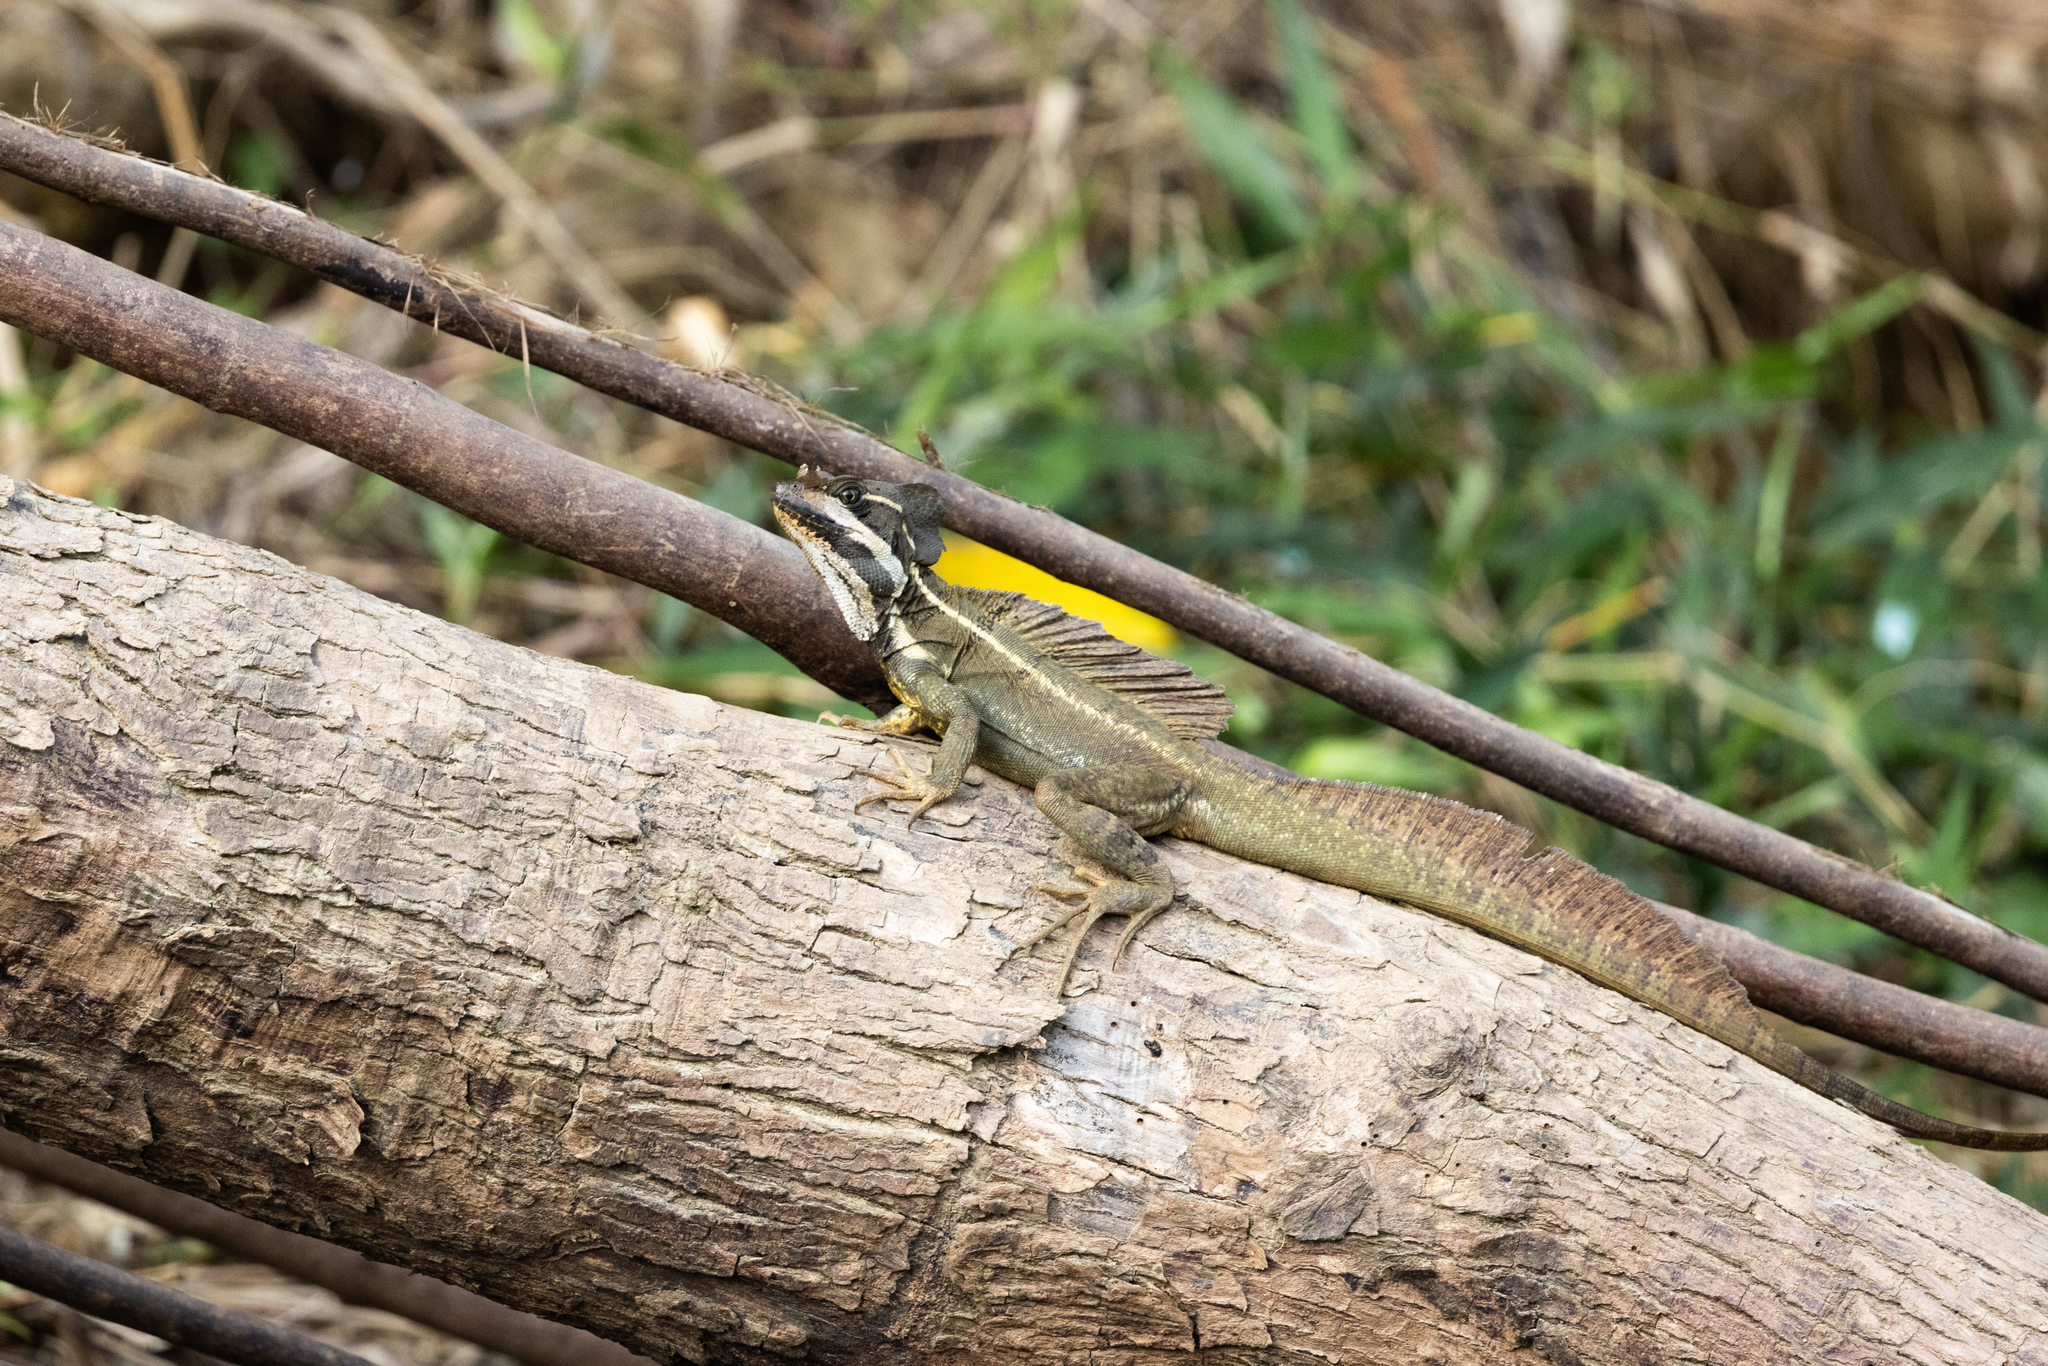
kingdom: Animalia
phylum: Chordata
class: Squamata
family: Corytophanidae
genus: Basiliscus
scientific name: Basiliscus basiliscus
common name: Common basilisk
